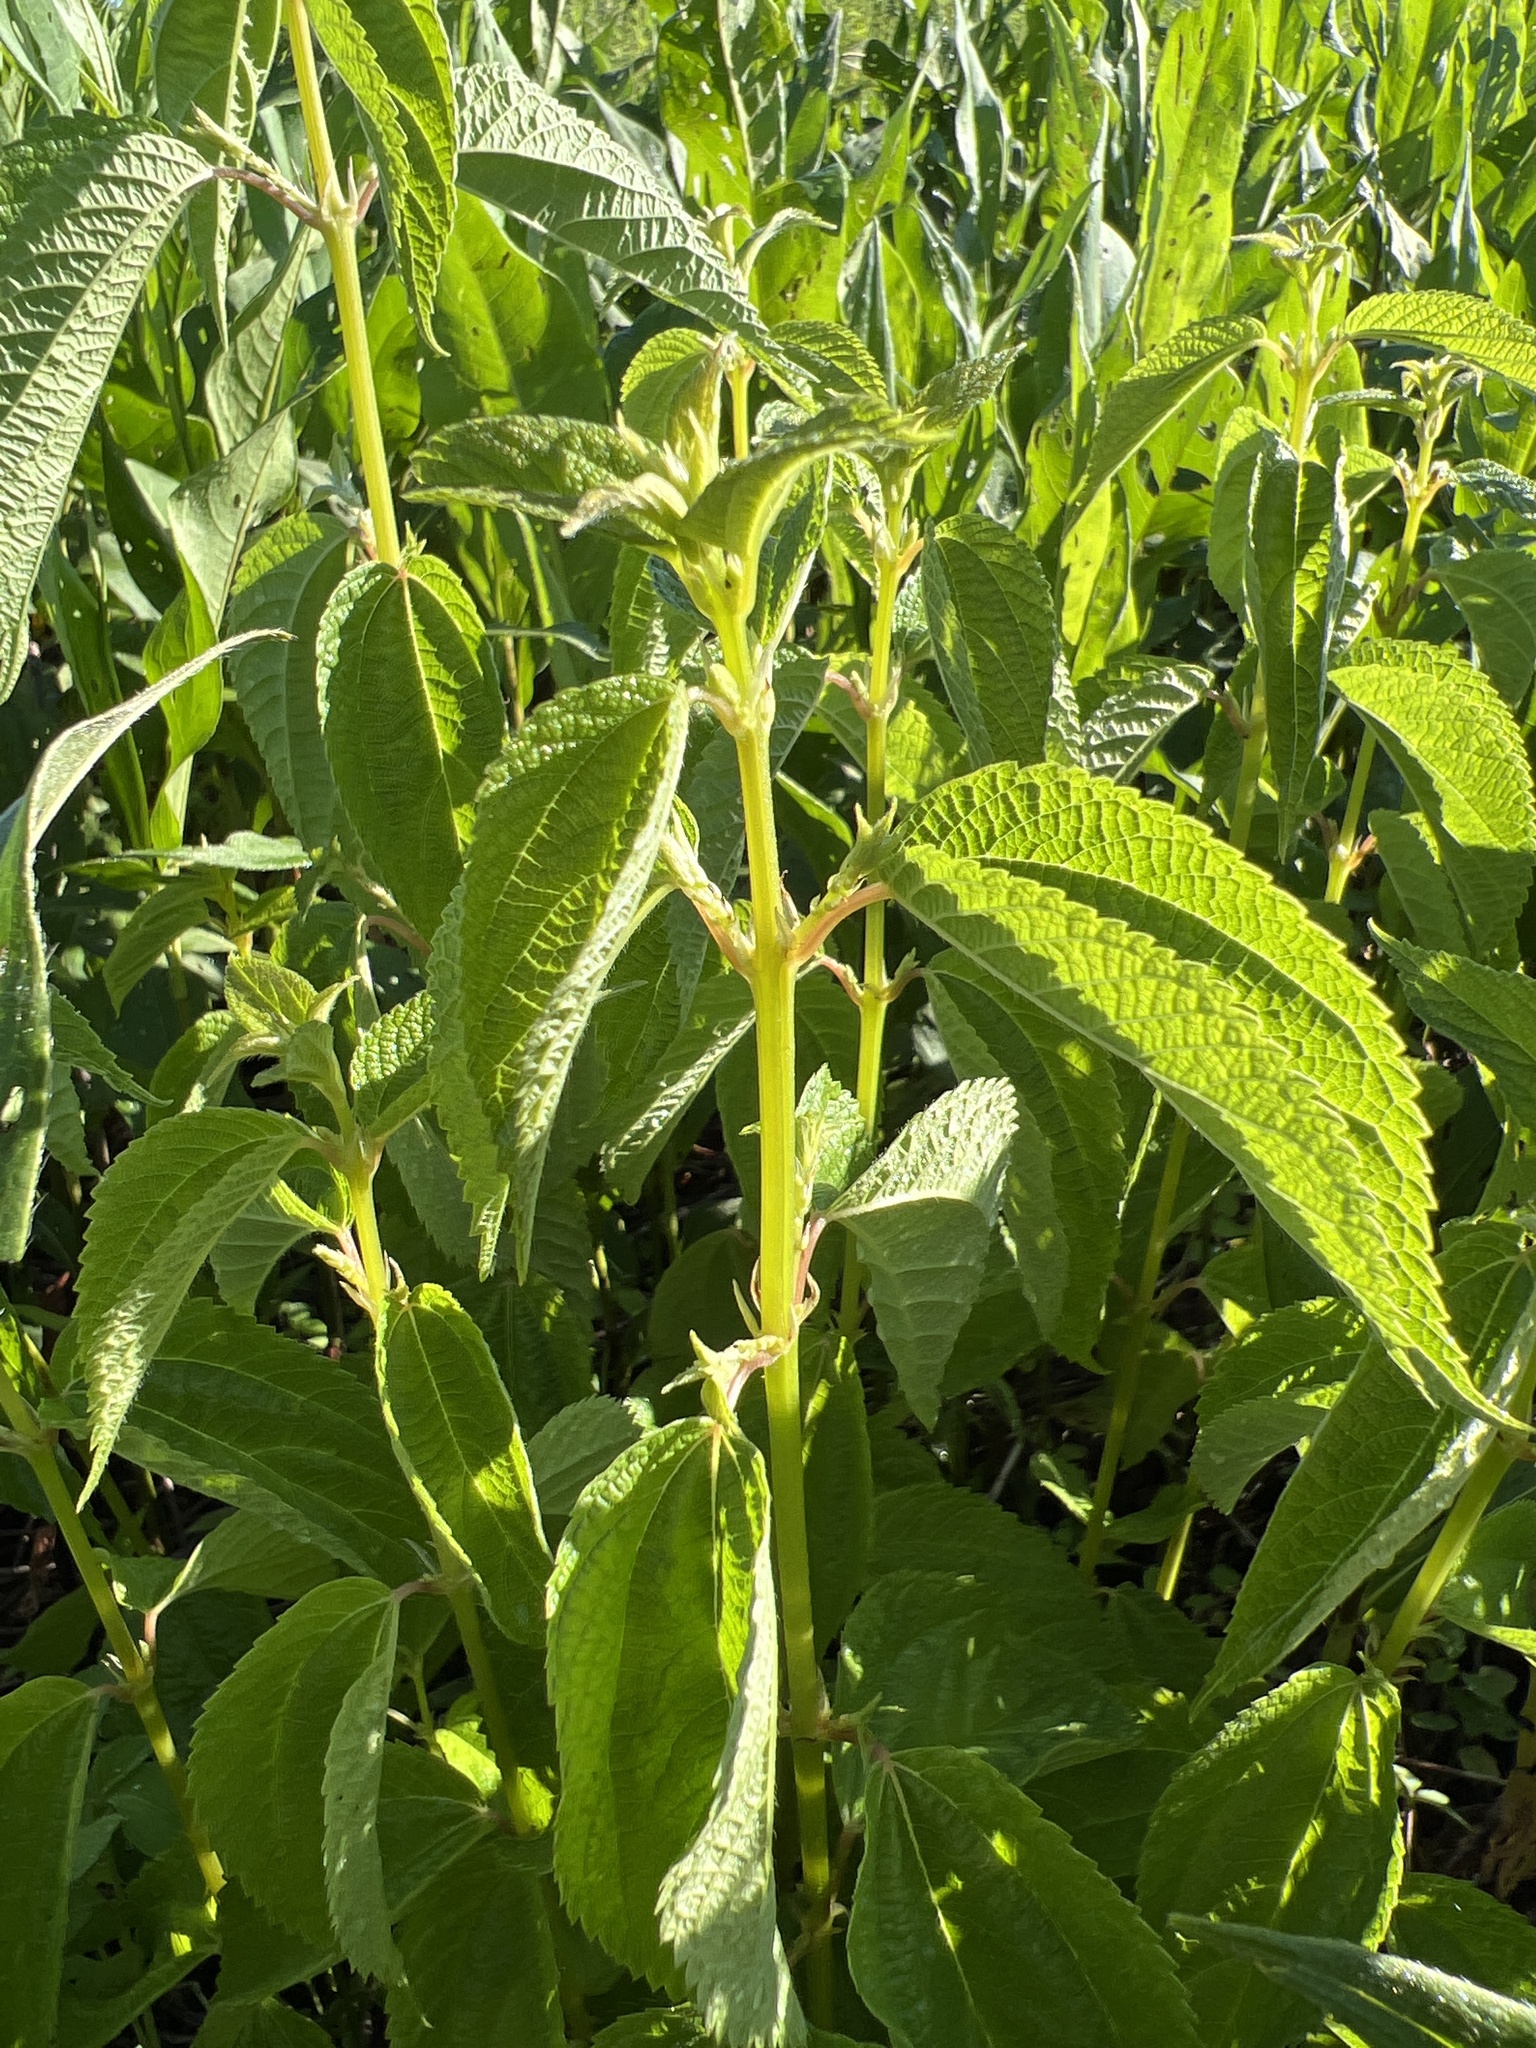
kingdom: Plantae
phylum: Tracheophyta
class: Magnoliopsida
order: Rosales
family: Urticaceae
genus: Boehmeria
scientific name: Boehmeria cylindrica
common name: Bog-hemp
